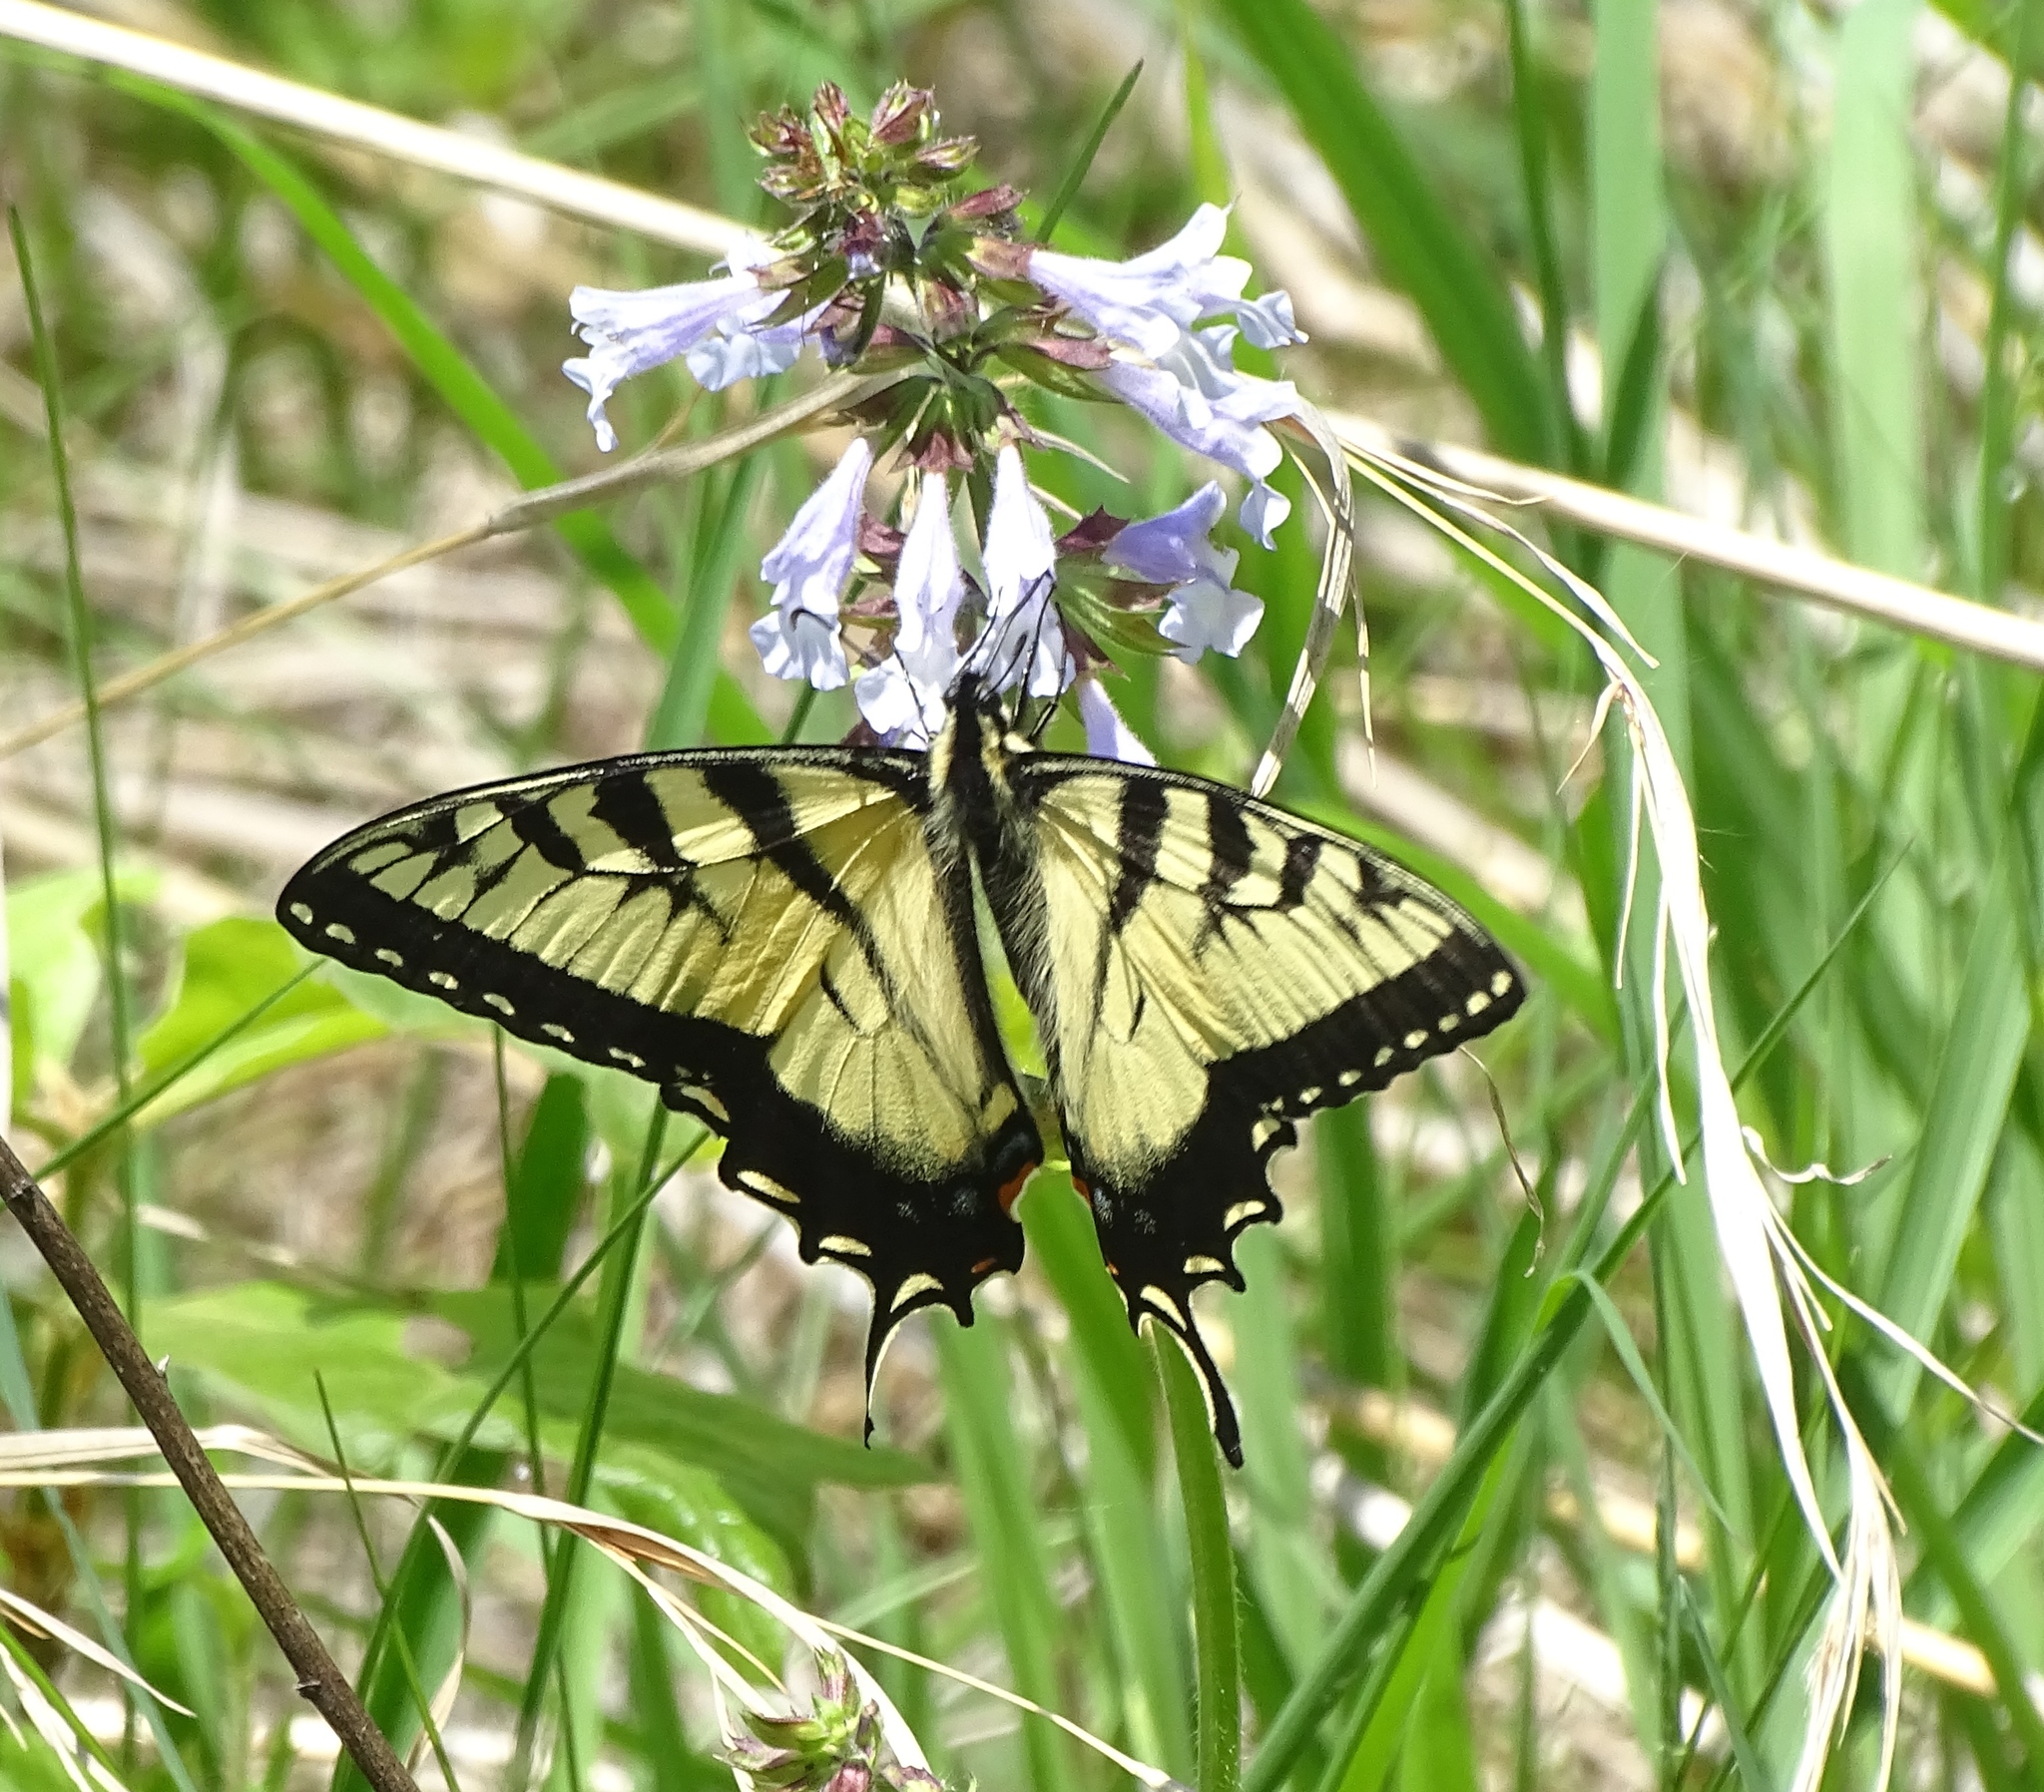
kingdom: Animalia
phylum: Arthropoda
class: Insecta
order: Lepidoptera
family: Papilionidae
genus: Papilio
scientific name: Papilio glaucus
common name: Tiger swallowtail
